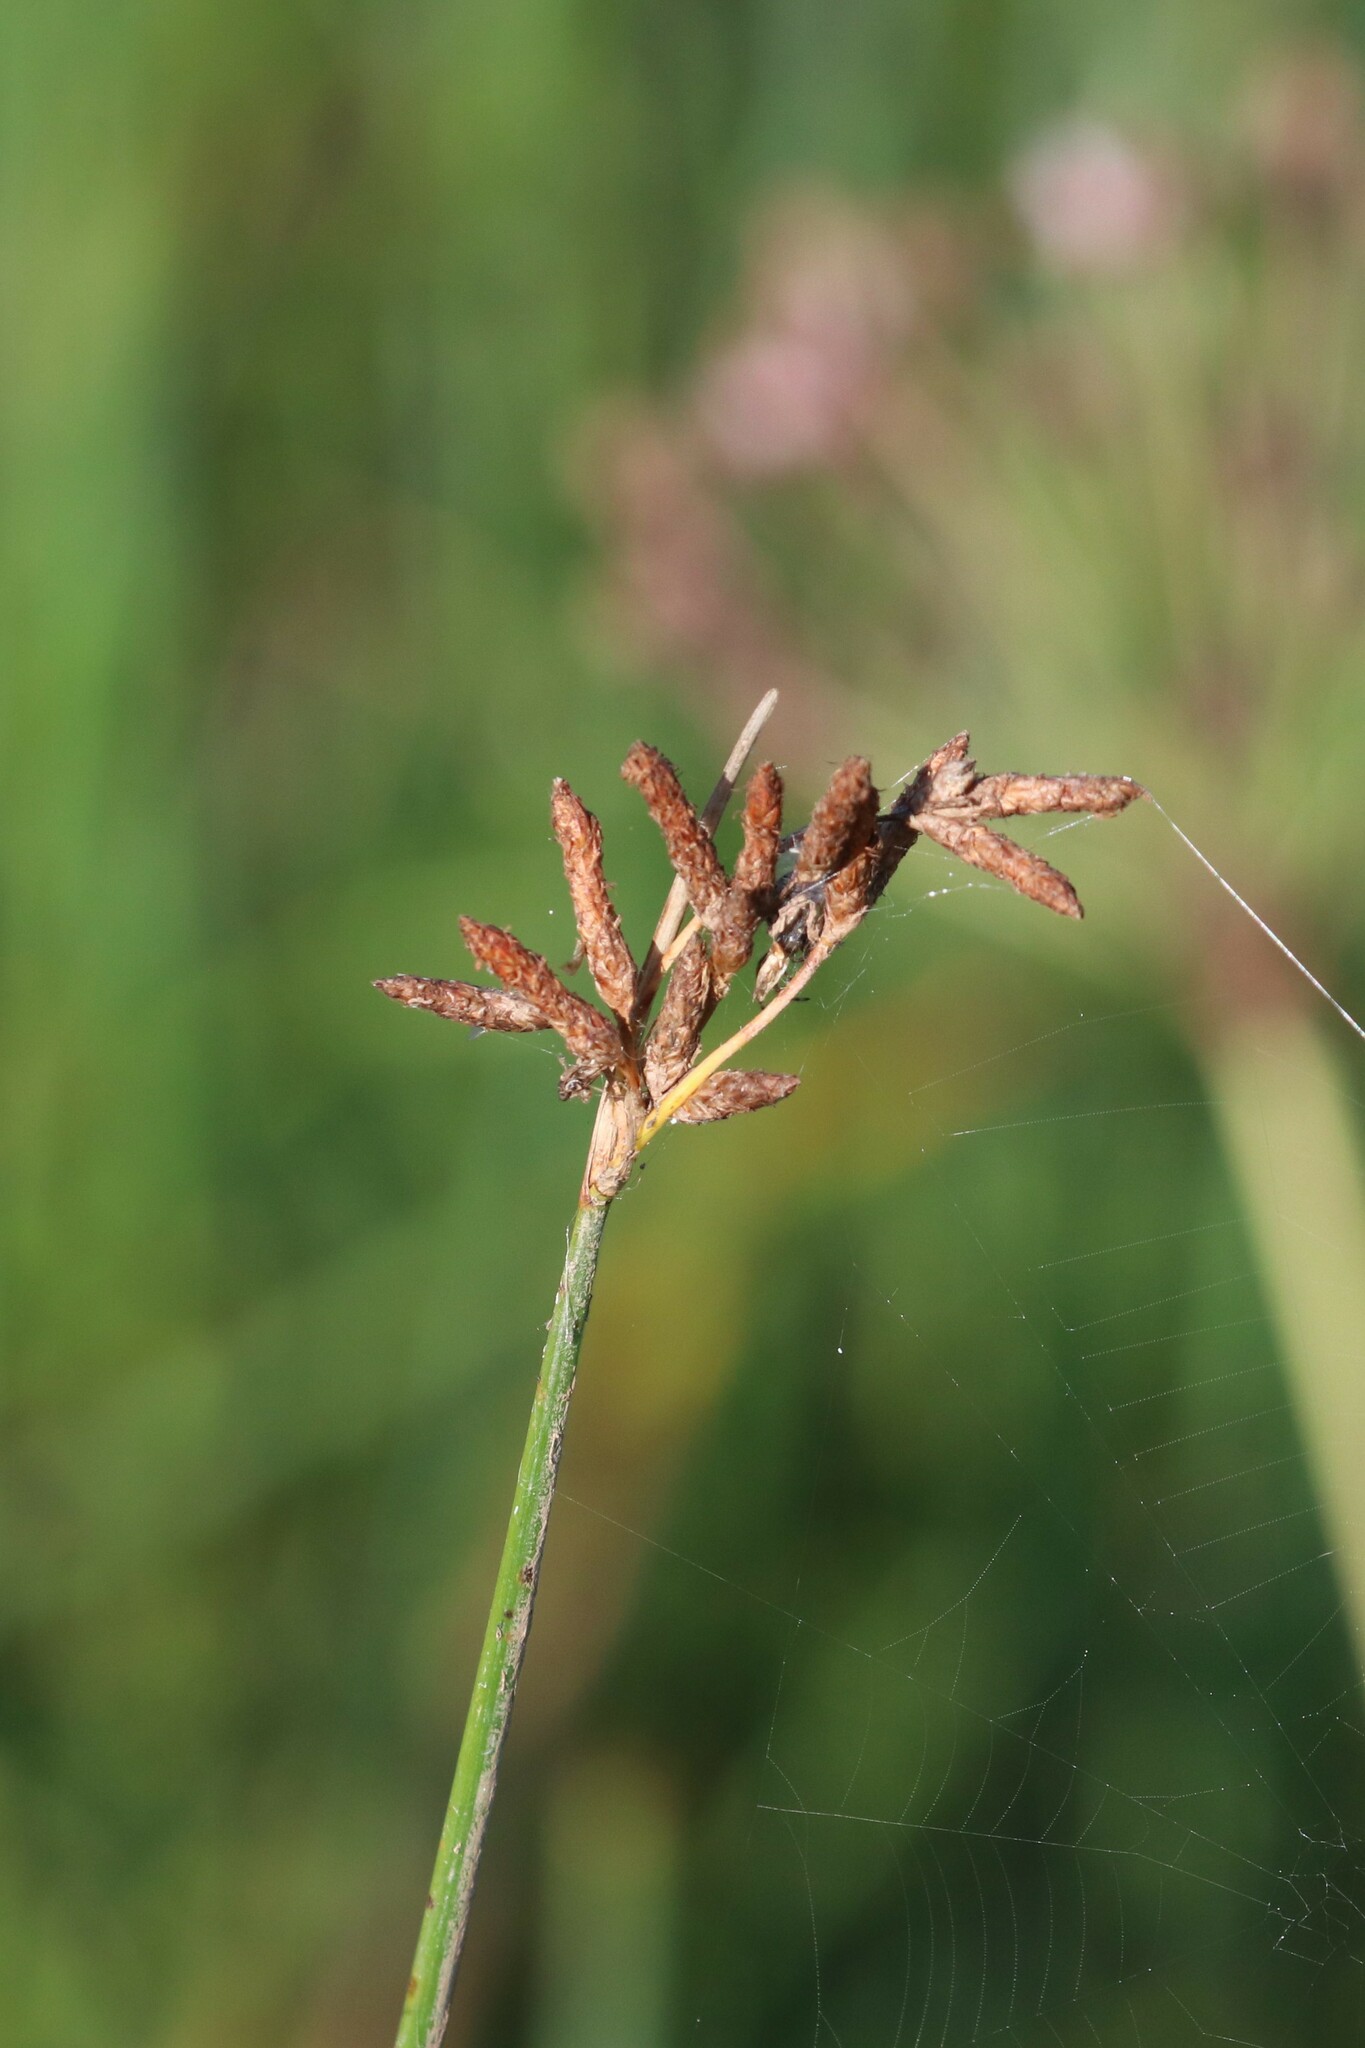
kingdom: Plantae
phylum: Tracheophyta
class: Liliopsida
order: Poales
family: Cyperaceae
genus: Schoenoplectus
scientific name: Schoenoplectus lacustris
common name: Common club-rush
